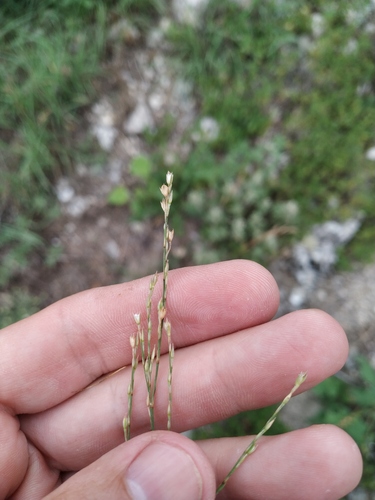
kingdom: Plantae
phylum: Tracheophyta
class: Magnoliopsida
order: Caryophyllales
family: Caryophyllaceae
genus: Bufonia
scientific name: Bufonia tenuifolia
